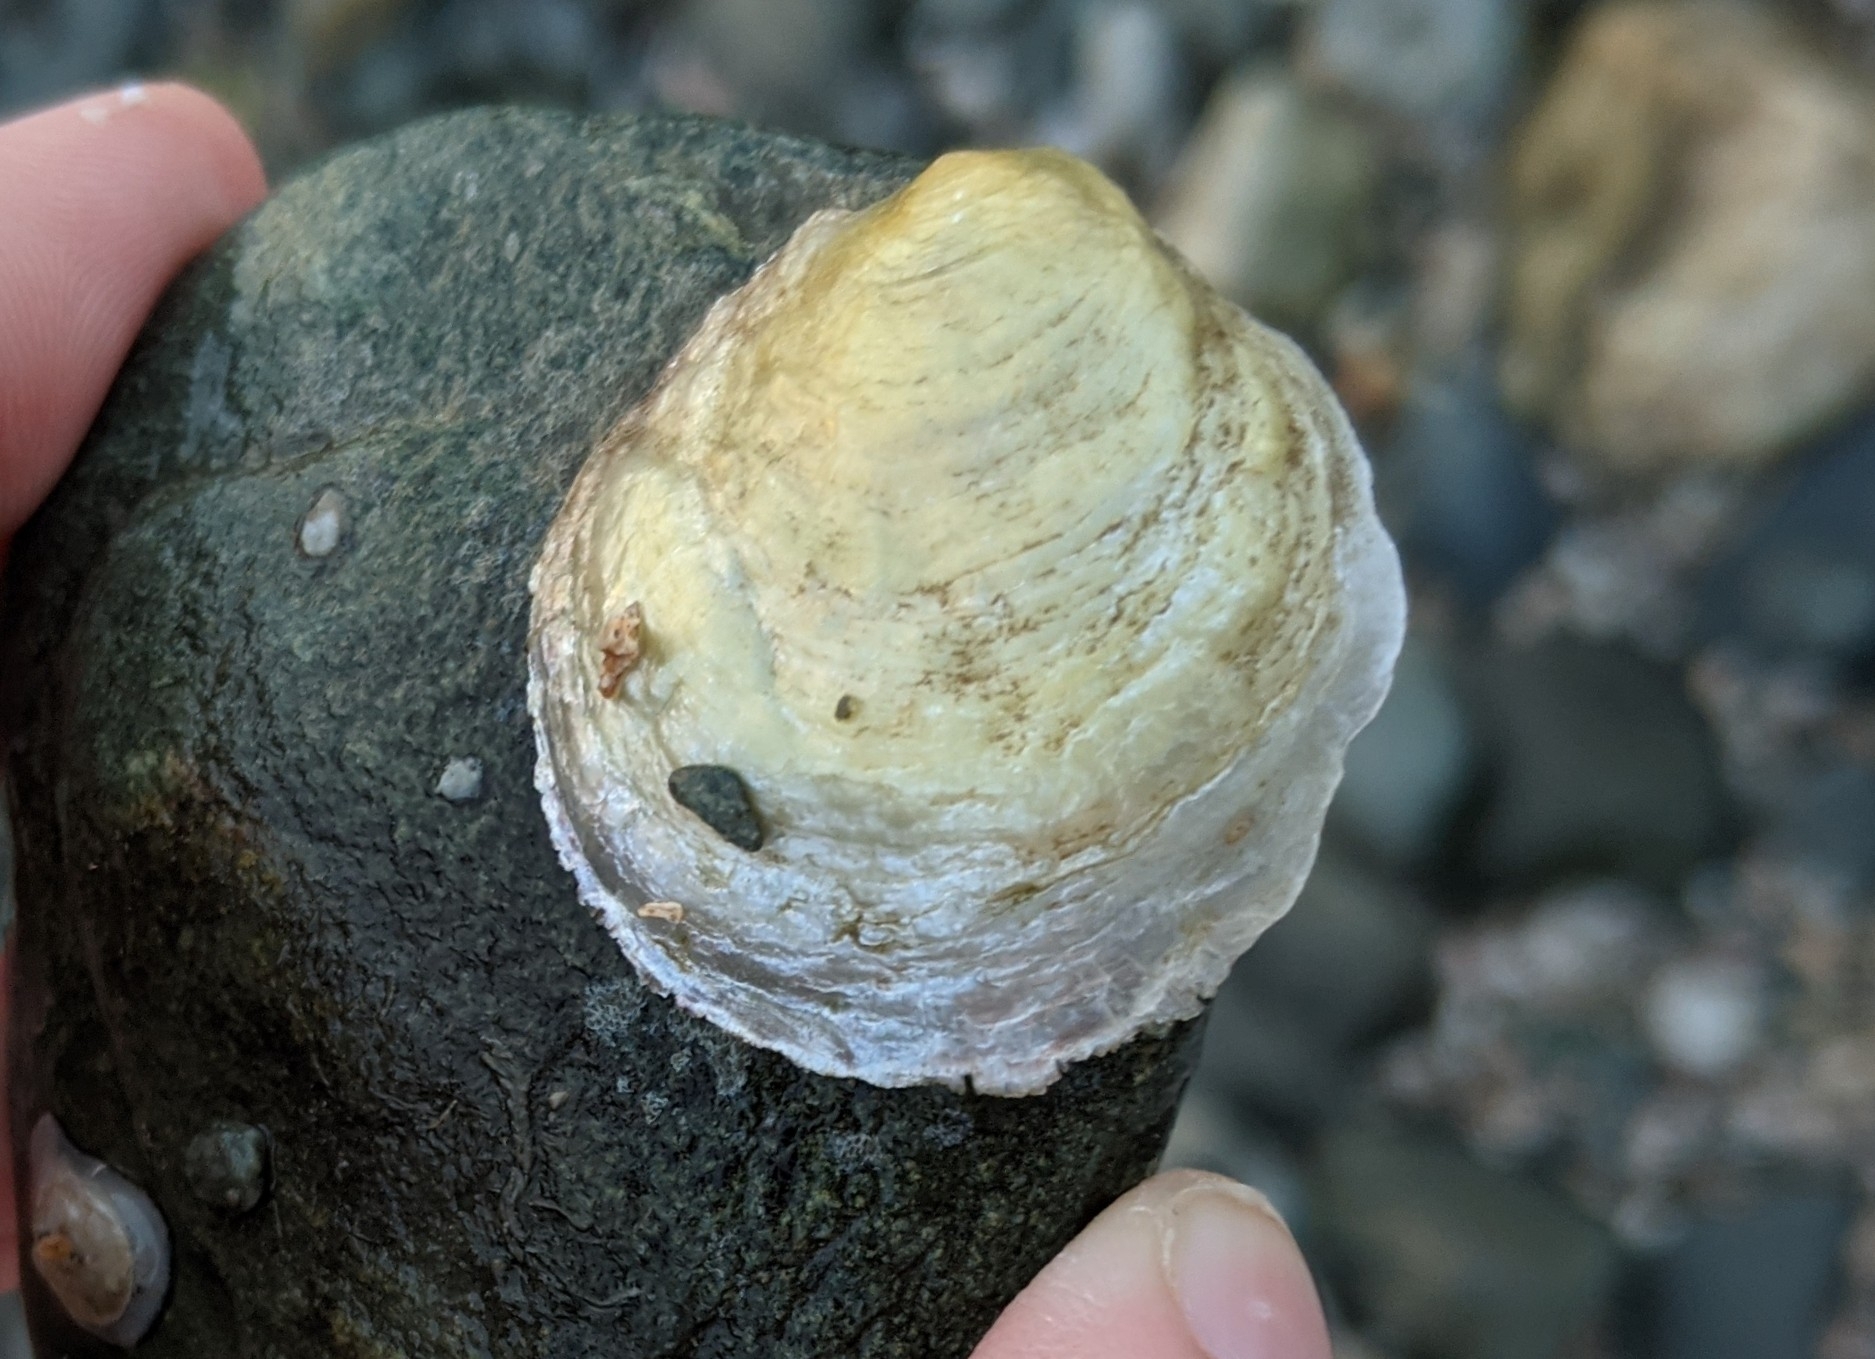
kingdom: Animalia
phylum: Mollusca
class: Bivalvia
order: Pectinida
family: Anomiidae
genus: Anomia
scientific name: Anomia simplex
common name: Common jingle shell
